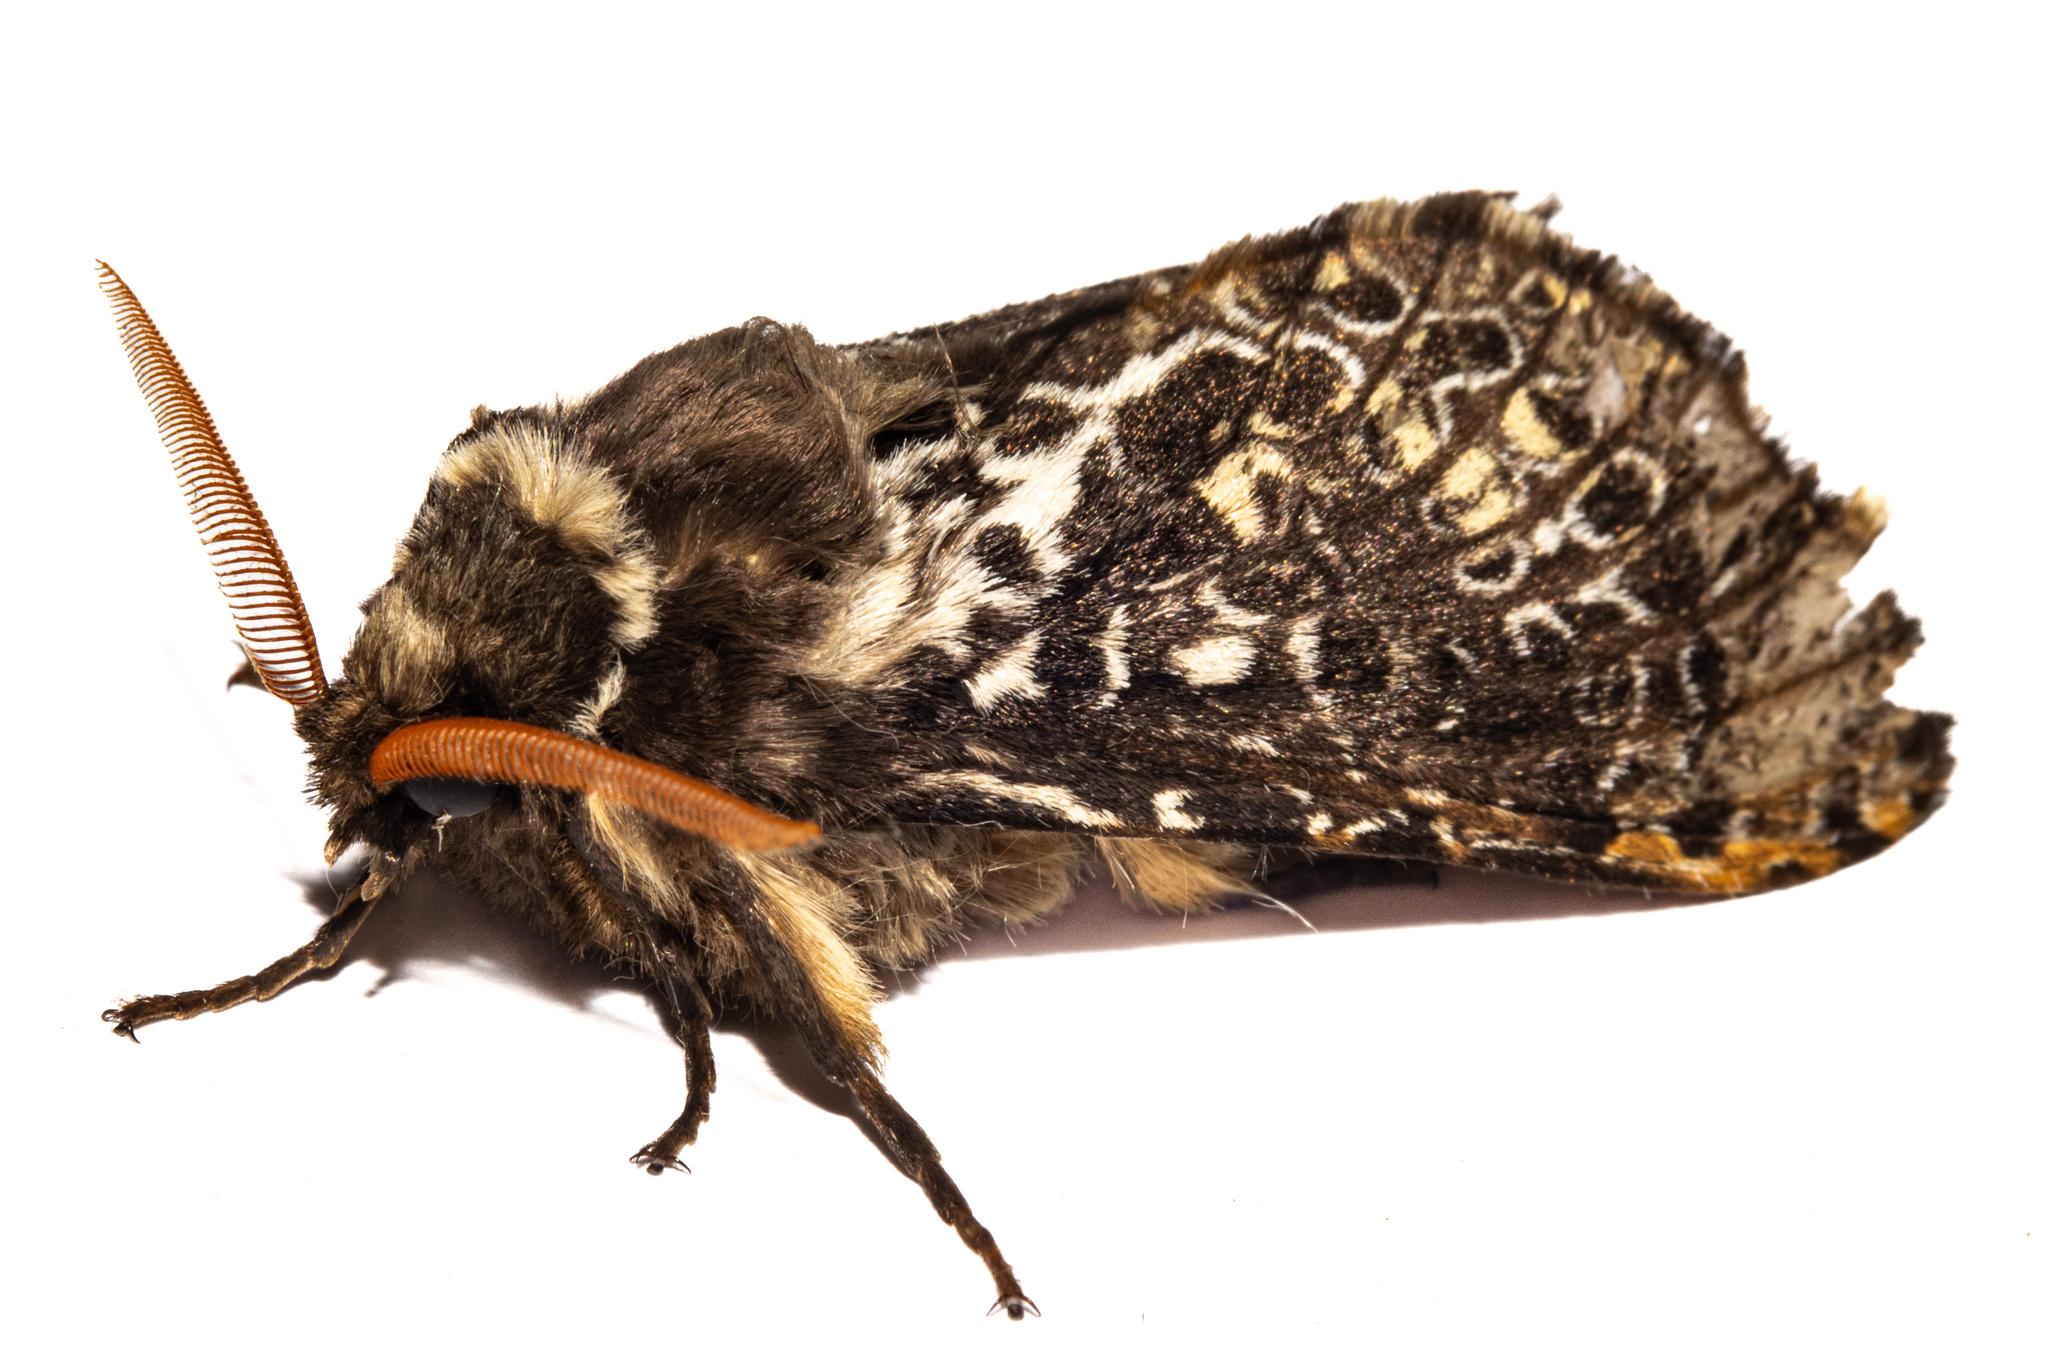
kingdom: Animalia
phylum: Arthropoda
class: Insecta
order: Lepidoptera
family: Hepialidae
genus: Aoraia
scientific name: Aoraia aurimaculata
